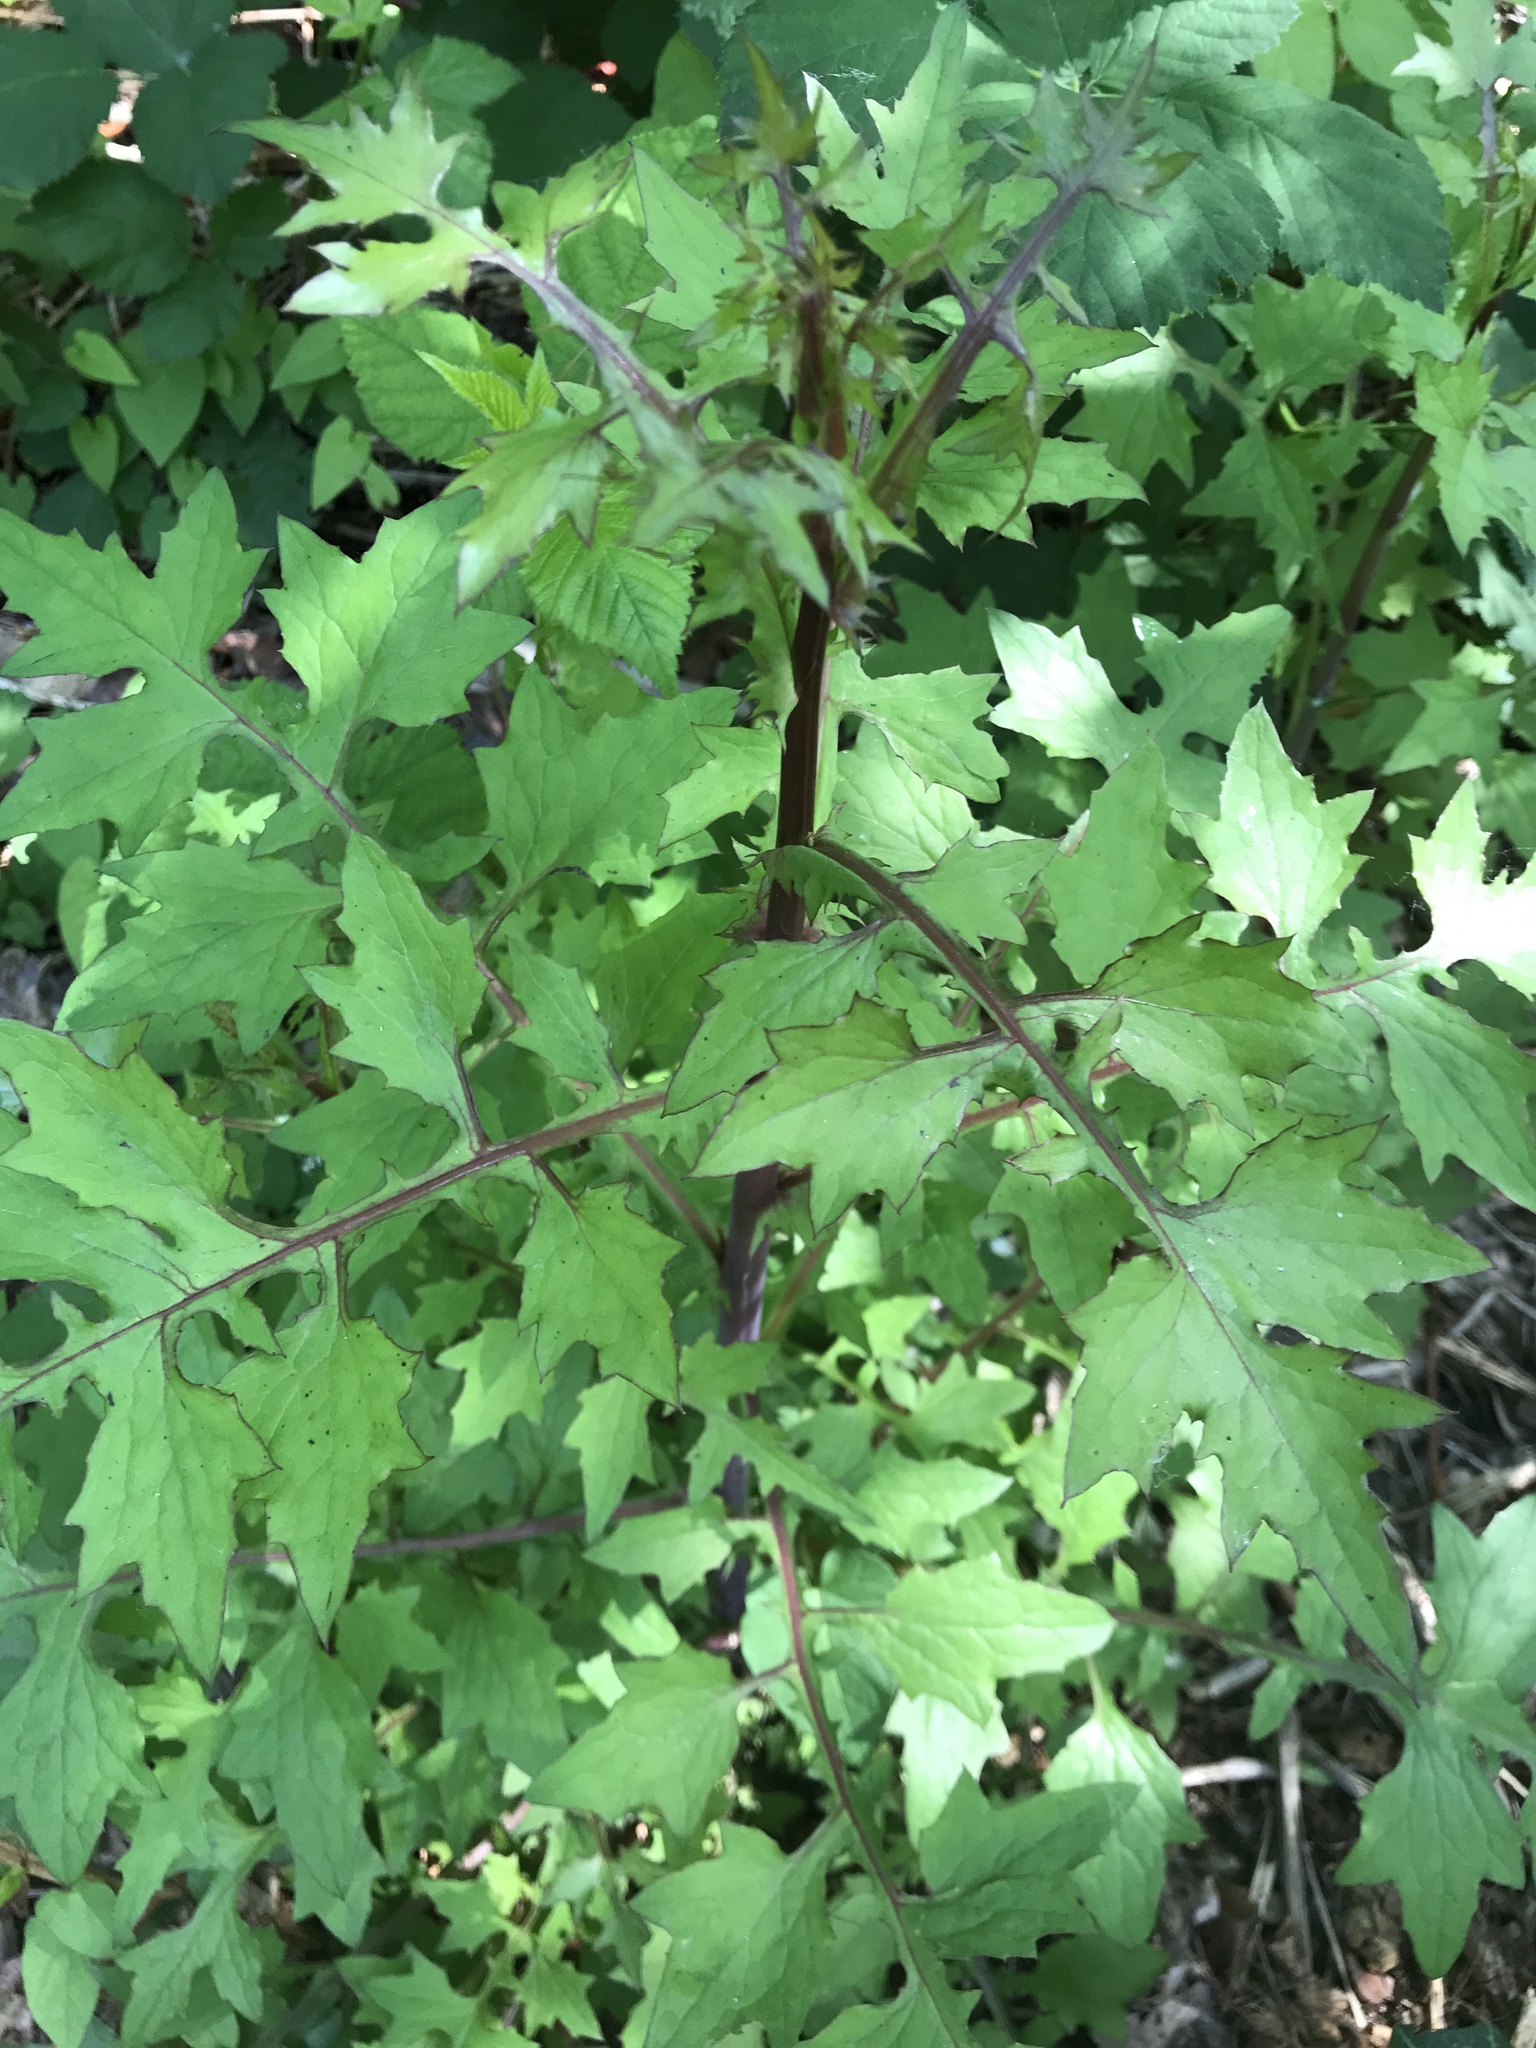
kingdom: Plantae
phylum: Tracheophyta
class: Magnoliopsida
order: Asterales
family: Asteraceae
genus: Mycelis
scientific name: Mycelis muralis
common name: Wall lettuce
